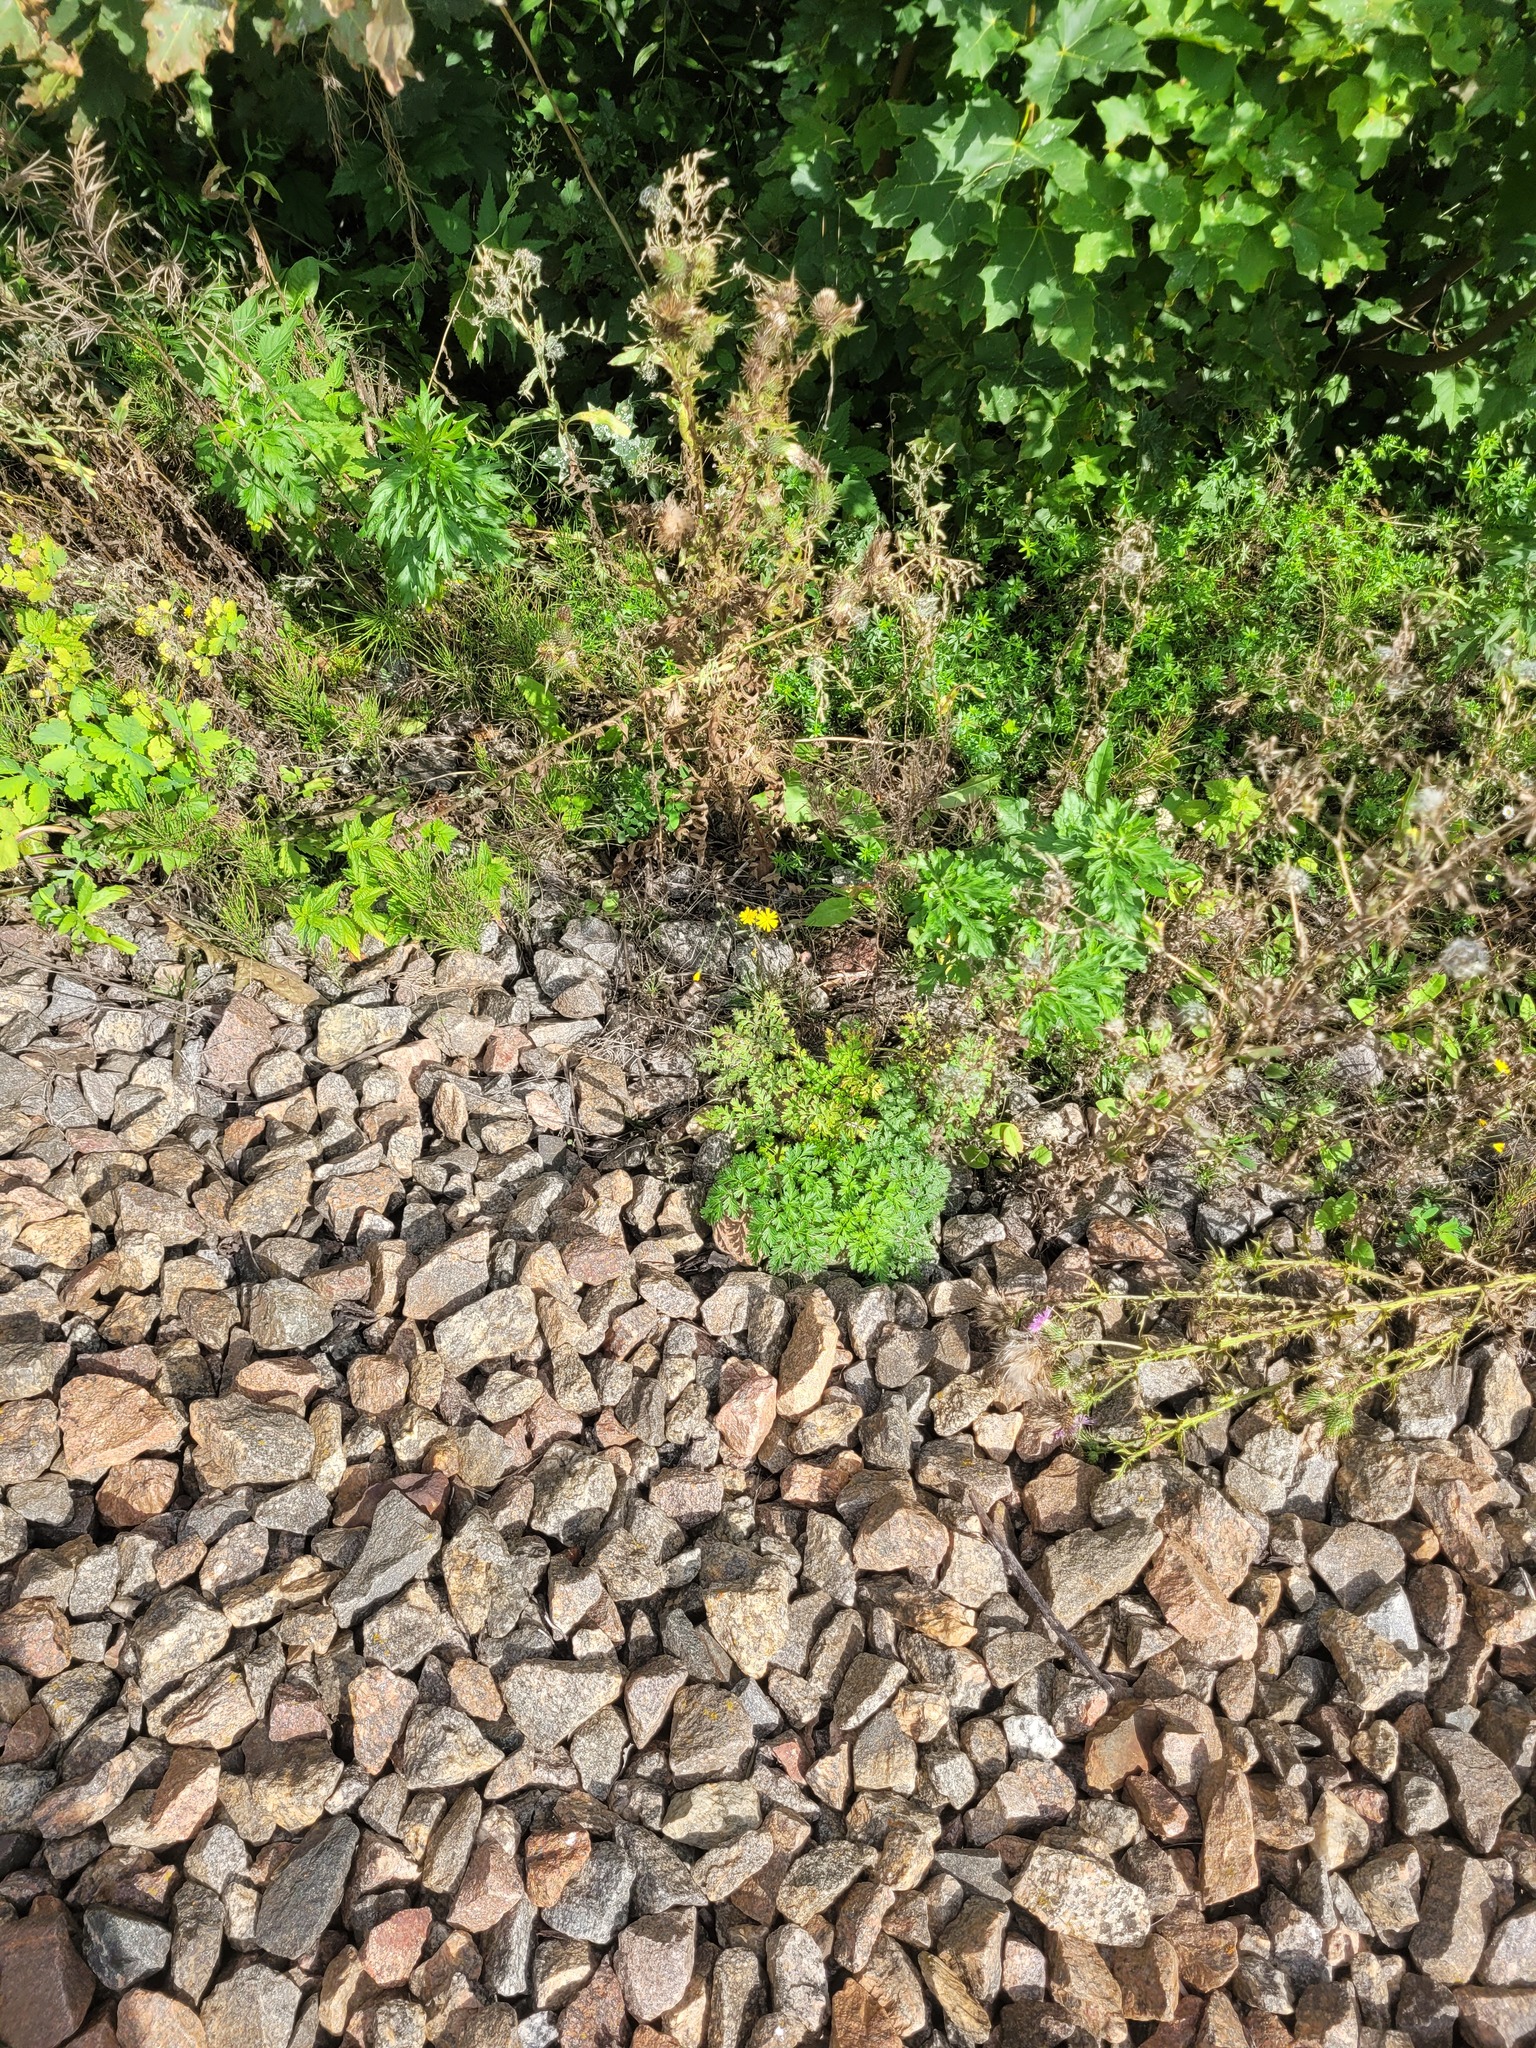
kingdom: Plantae
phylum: Tracheophyta
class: Magnoliopsida
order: Apiales
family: Apiaceae
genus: Anthriscus
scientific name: Anthriscus sylvestris
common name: Cow parsley
